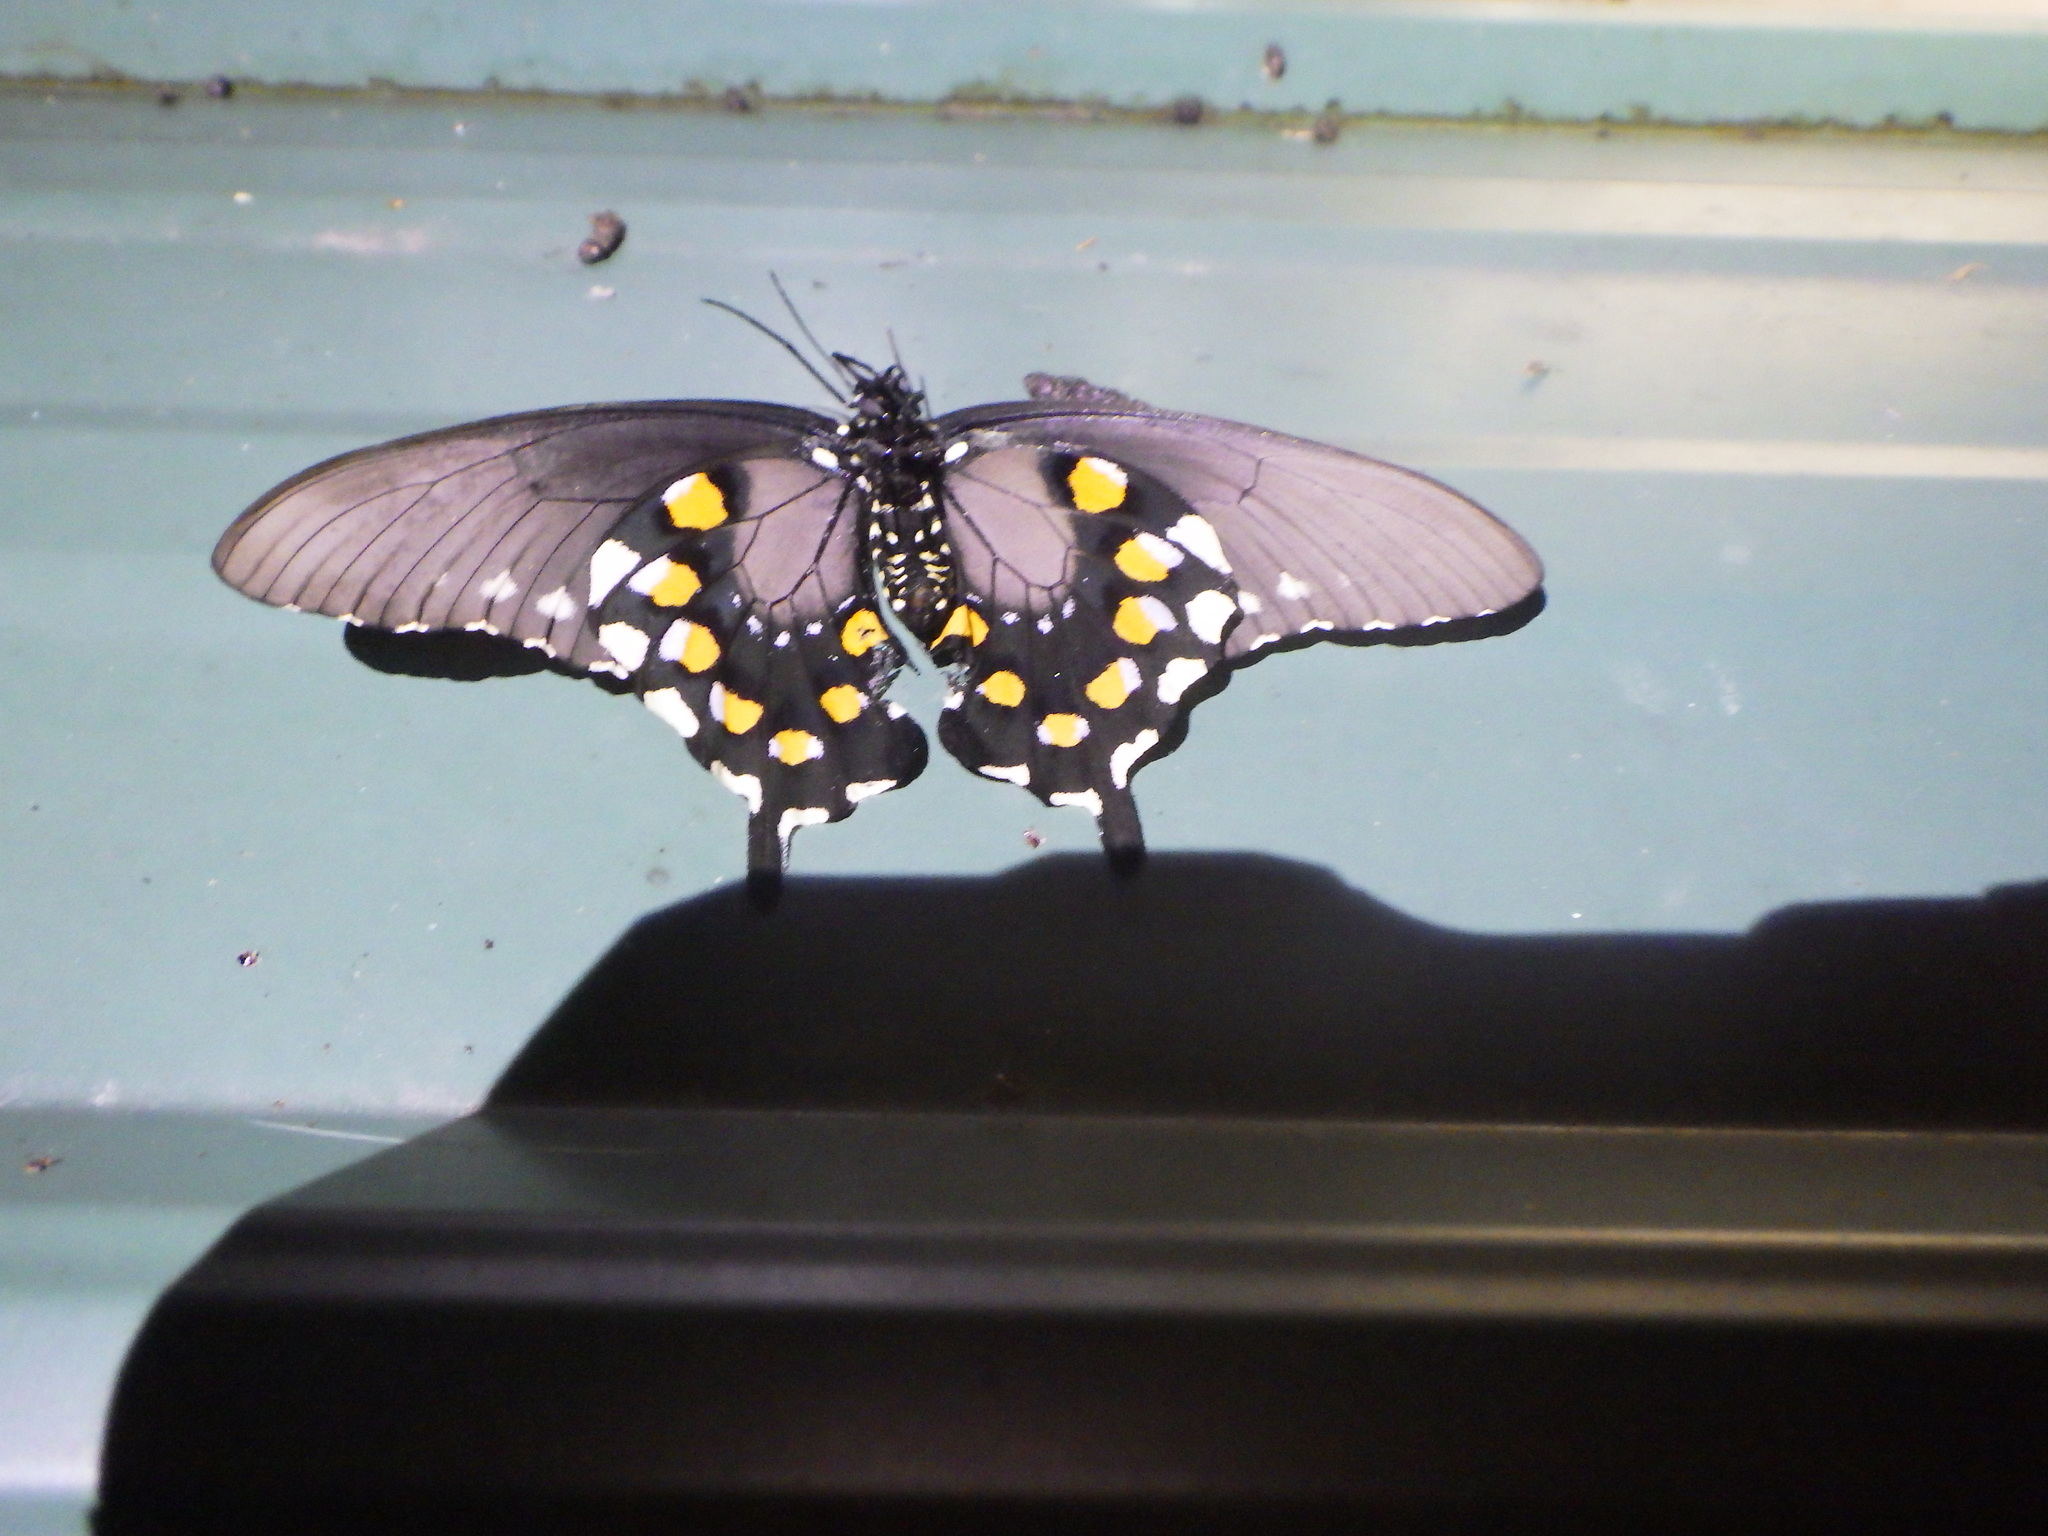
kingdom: Animalia
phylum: Arthropoda
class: Insecta
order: Lepidoptera
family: Papilionidae
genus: Battus
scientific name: Battus philenor
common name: Pipevine swallowtail
